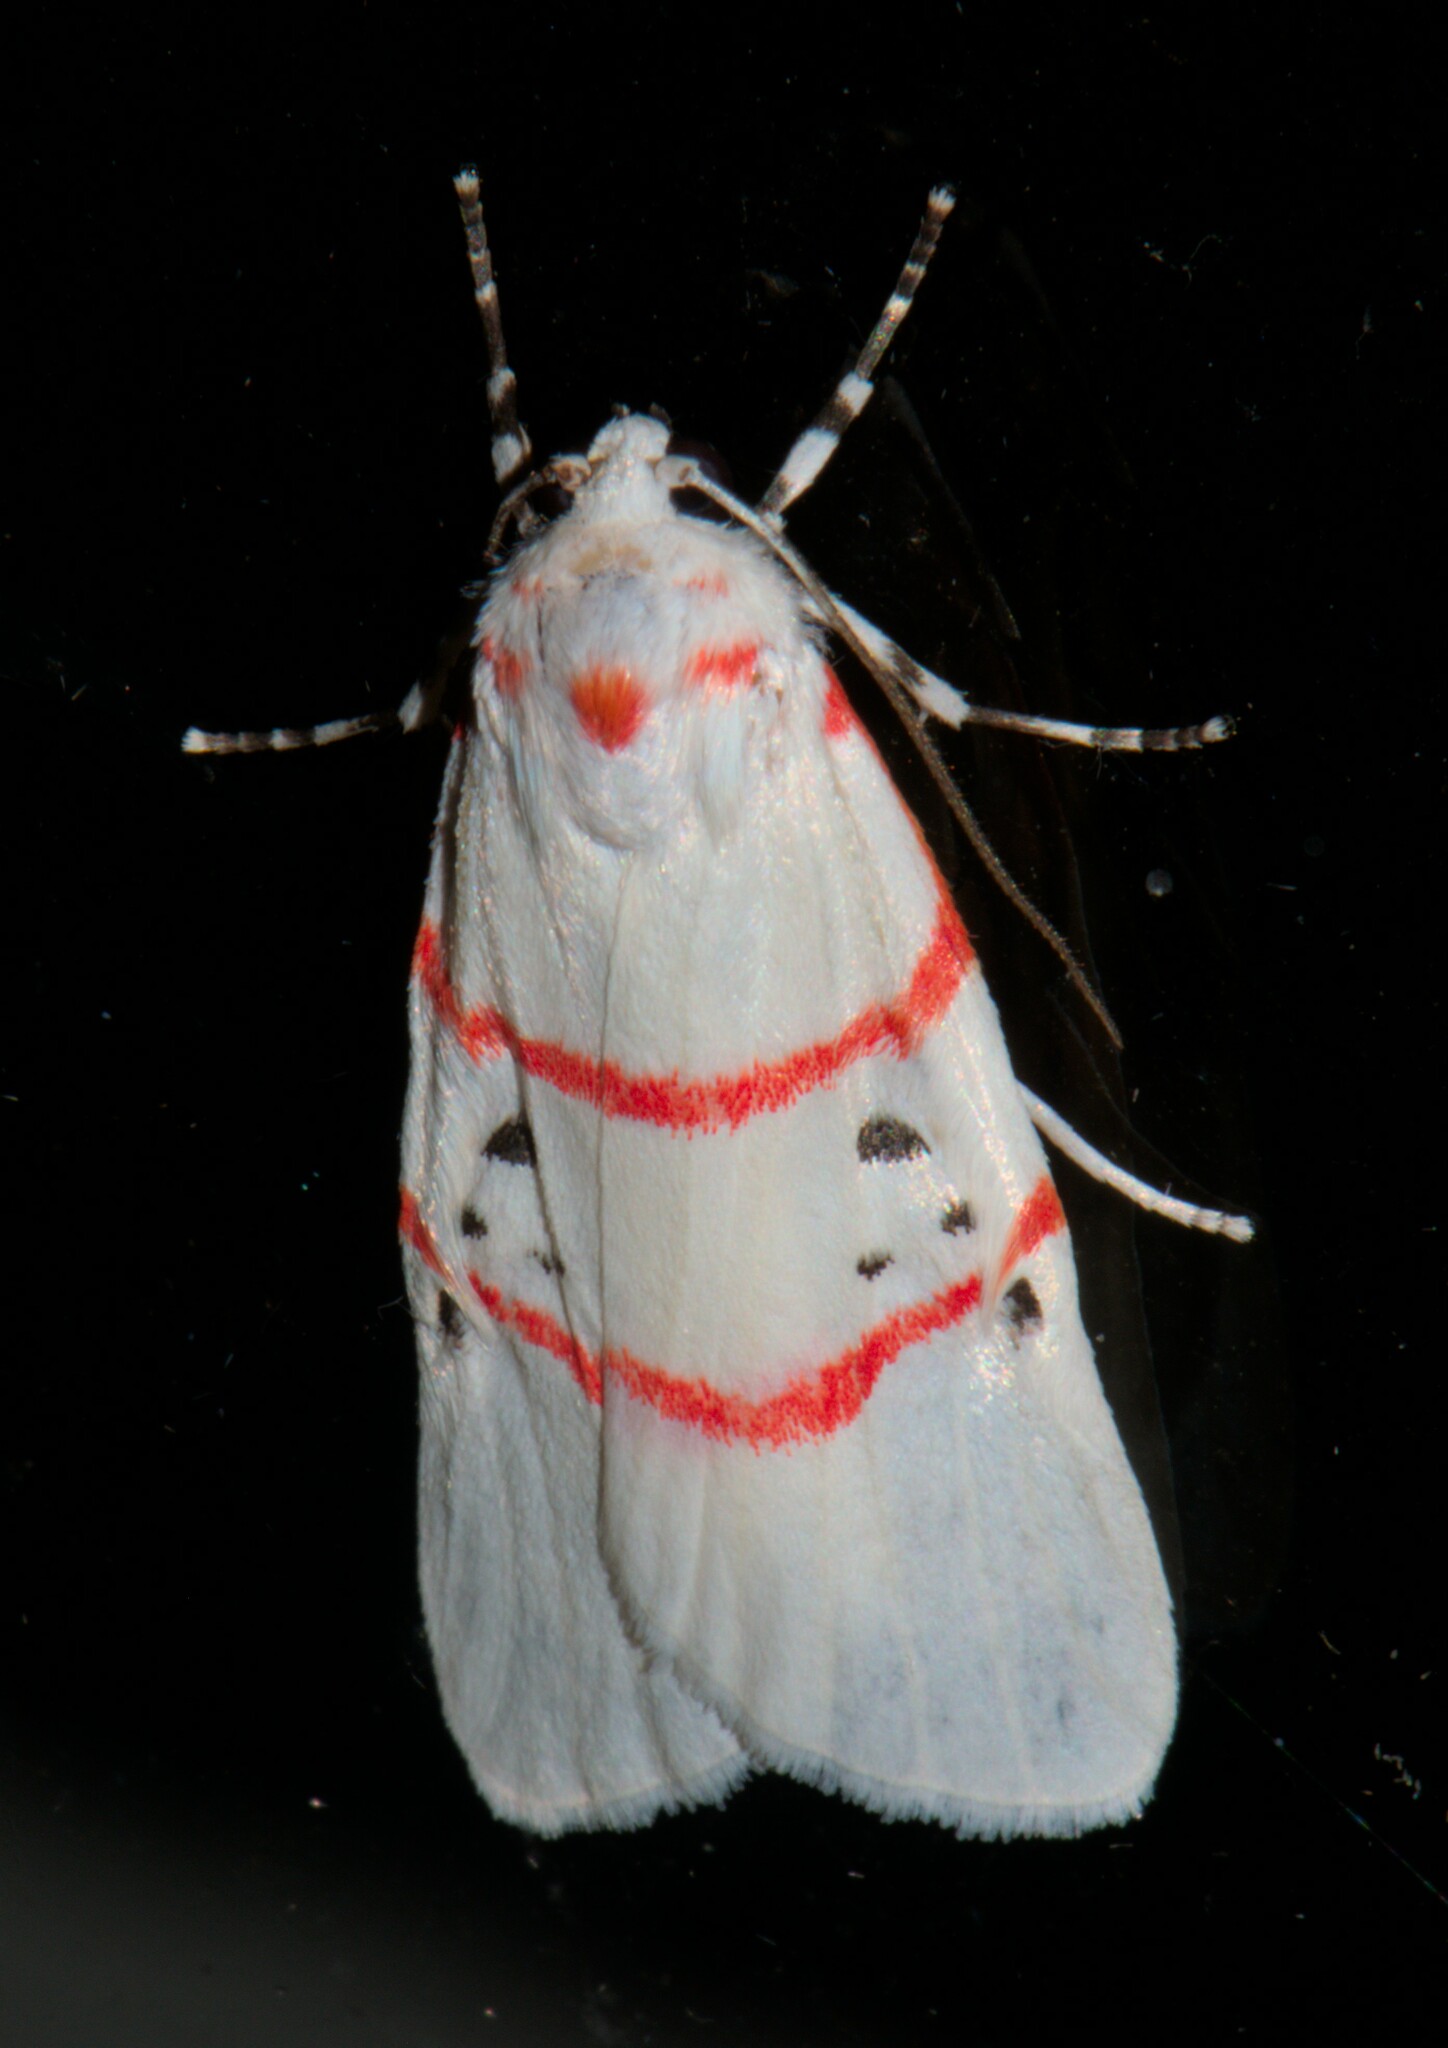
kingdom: Animalia
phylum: Arthropoda
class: Insecta
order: Lepidoptera
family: Erebidae
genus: Cyana
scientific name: Cyana adita
